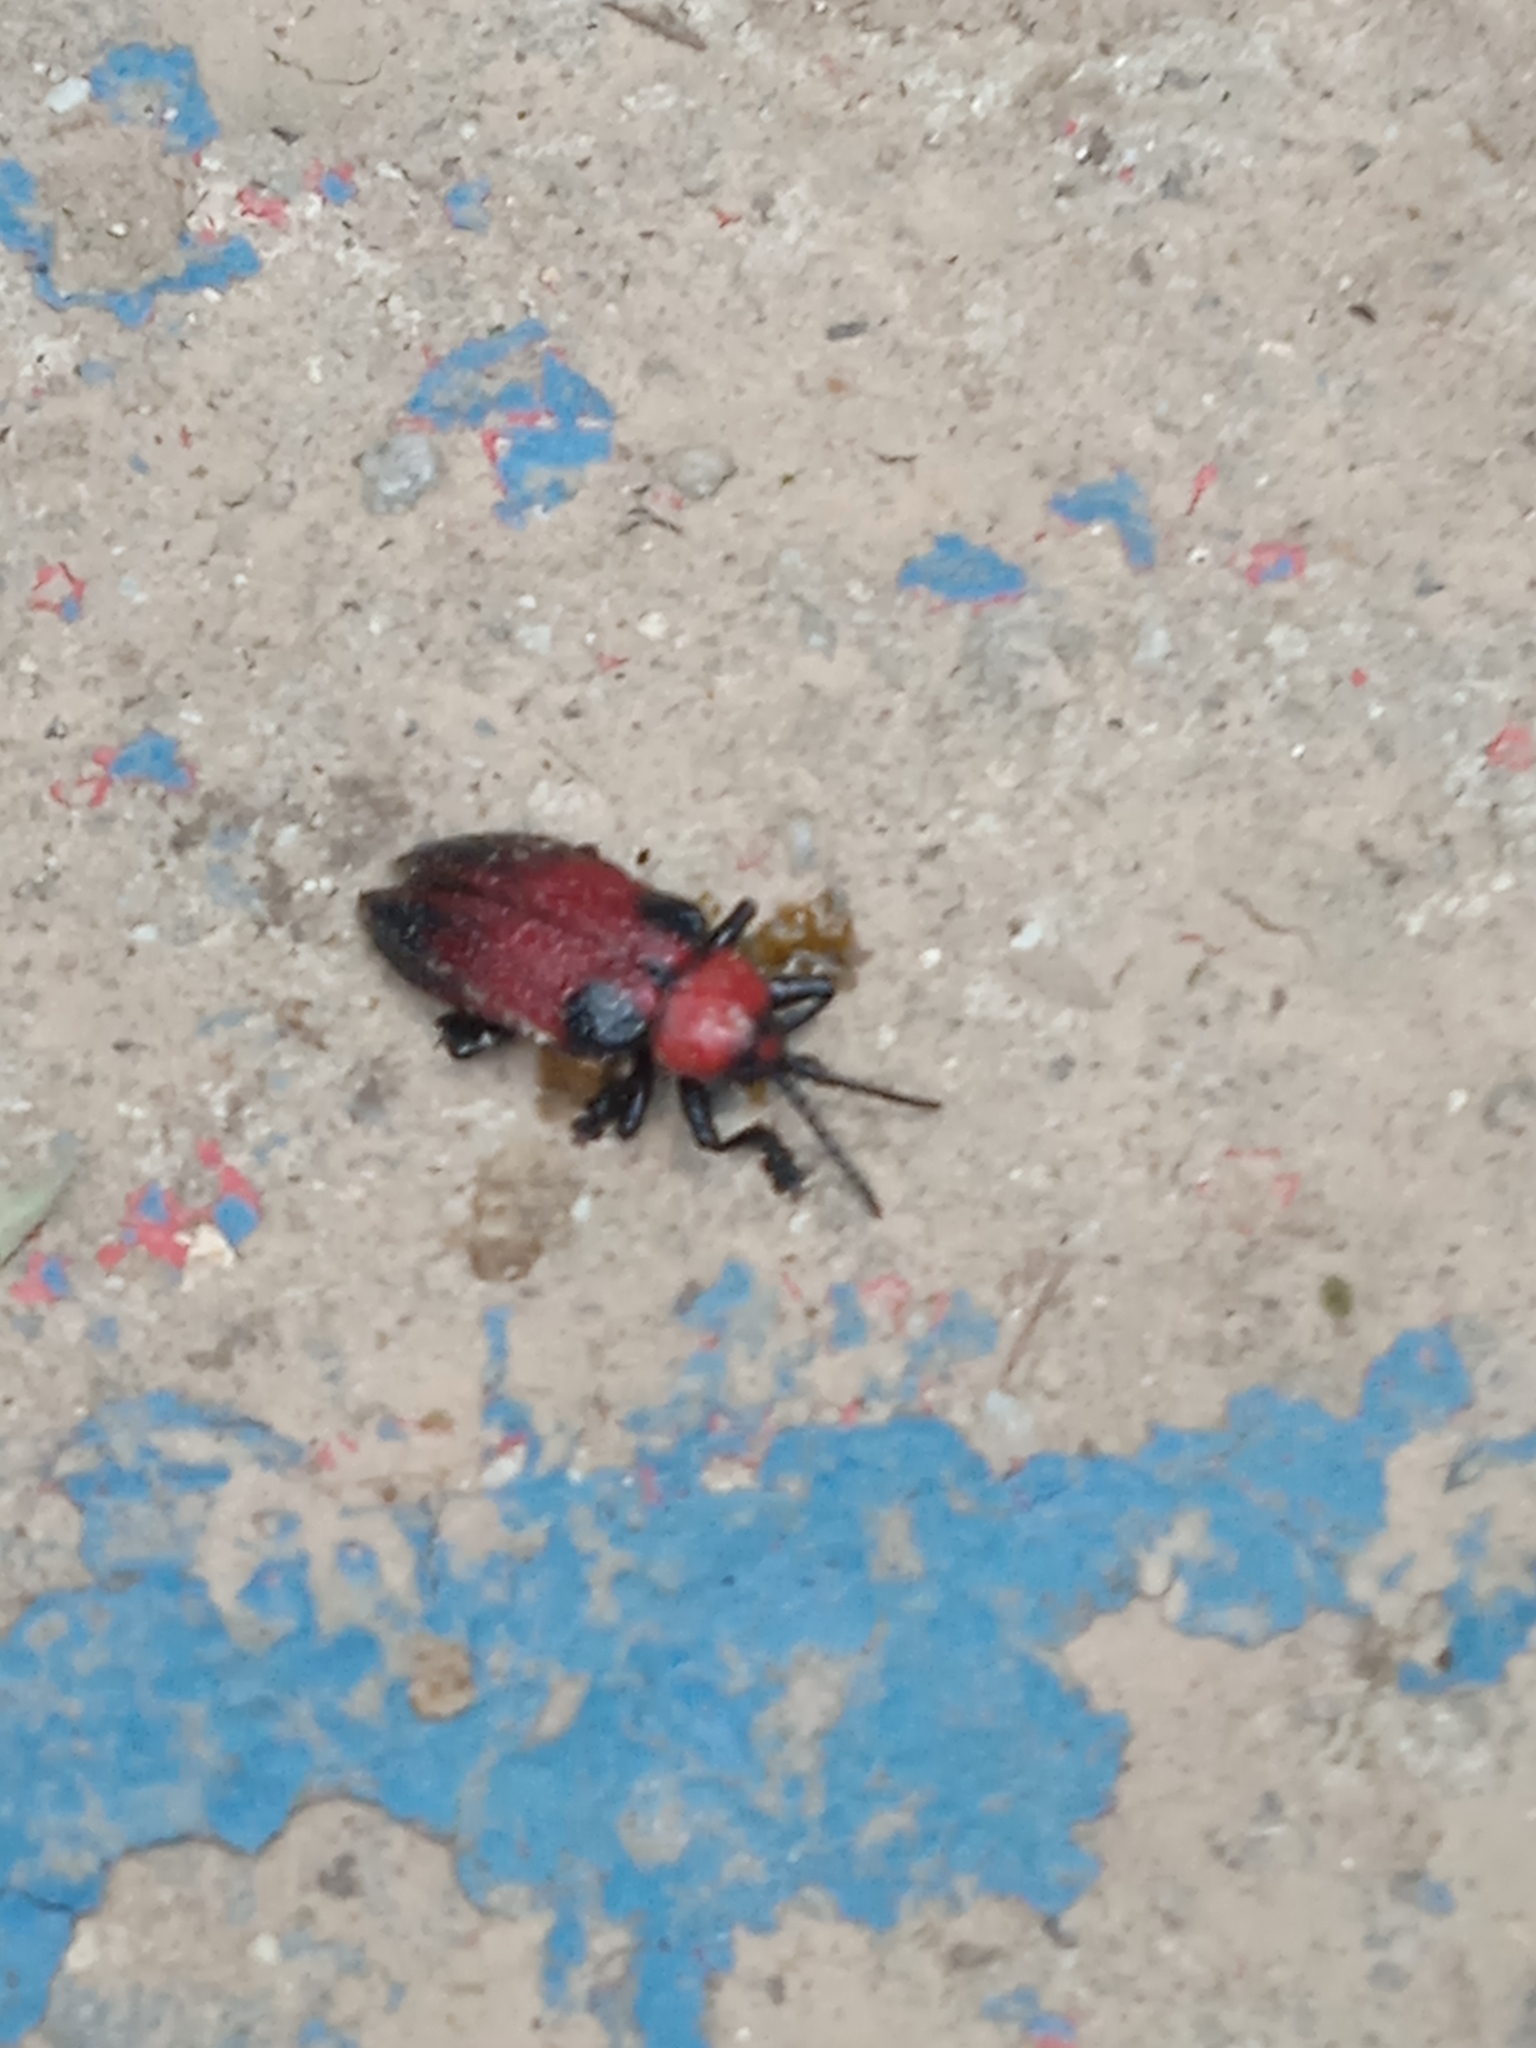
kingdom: Animalia
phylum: Arthropoda
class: Insecta
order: Coleoptera
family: Chrysomelidae
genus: Coraliomela
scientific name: Coraliomela aeneoplagiata
